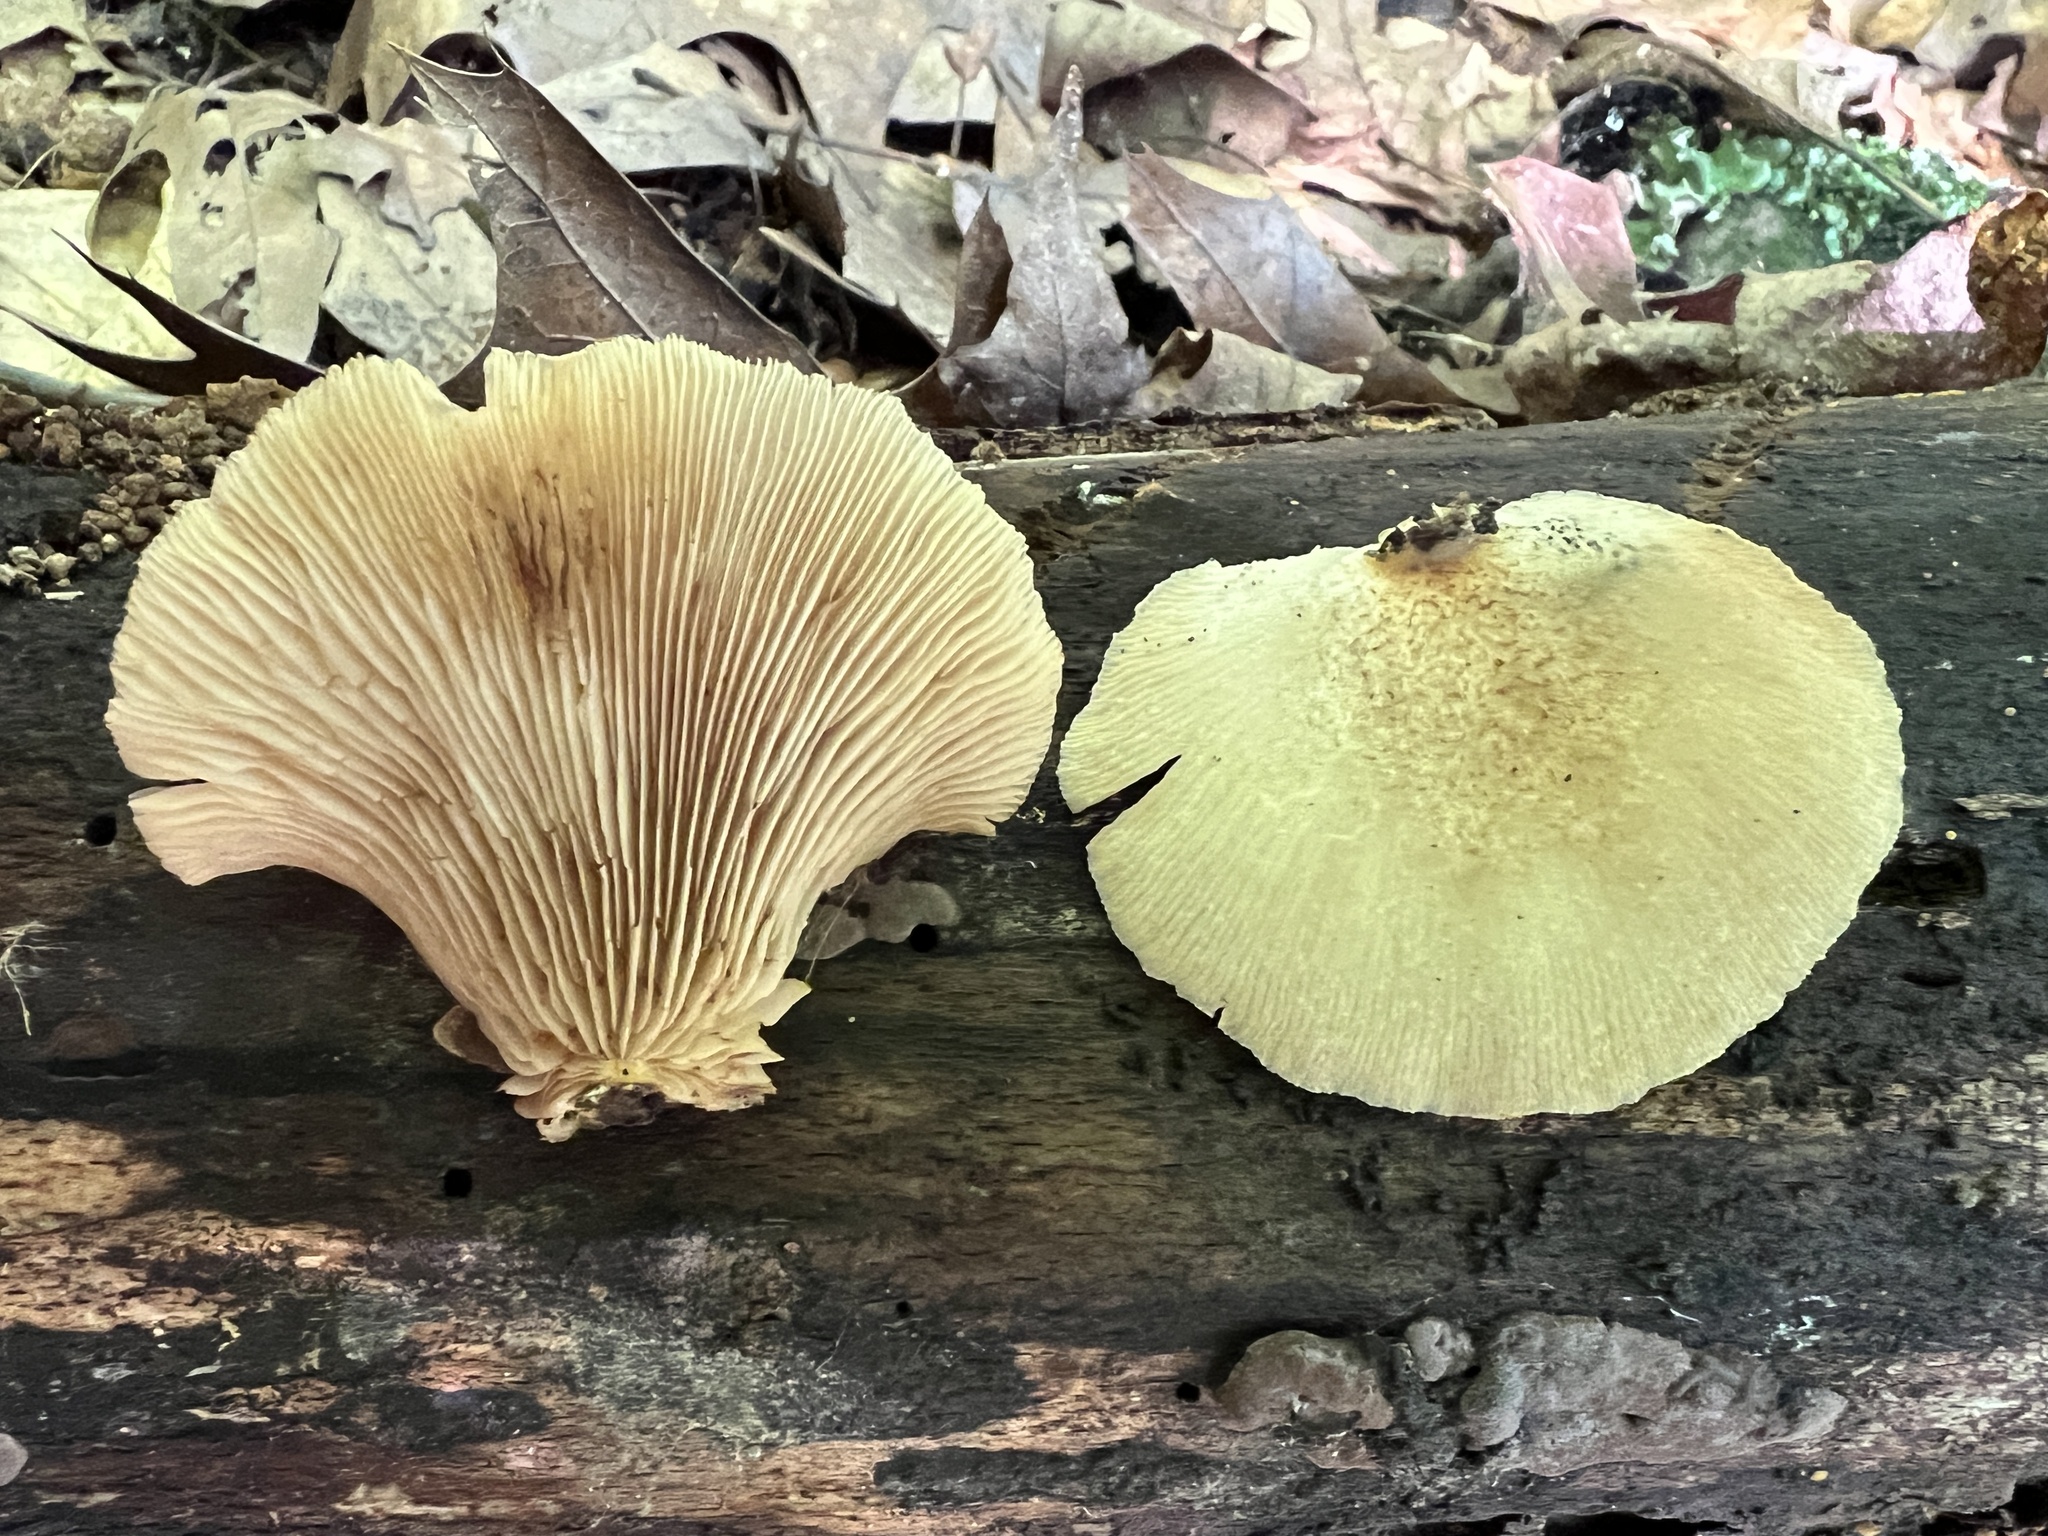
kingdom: Fungi
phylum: Basidiomycota
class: Agaricomycetes
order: Agaricales
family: Crepidotaceae
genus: Crepidotus
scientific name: Crepidotus crocophyllus
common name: Saffron oysterling
